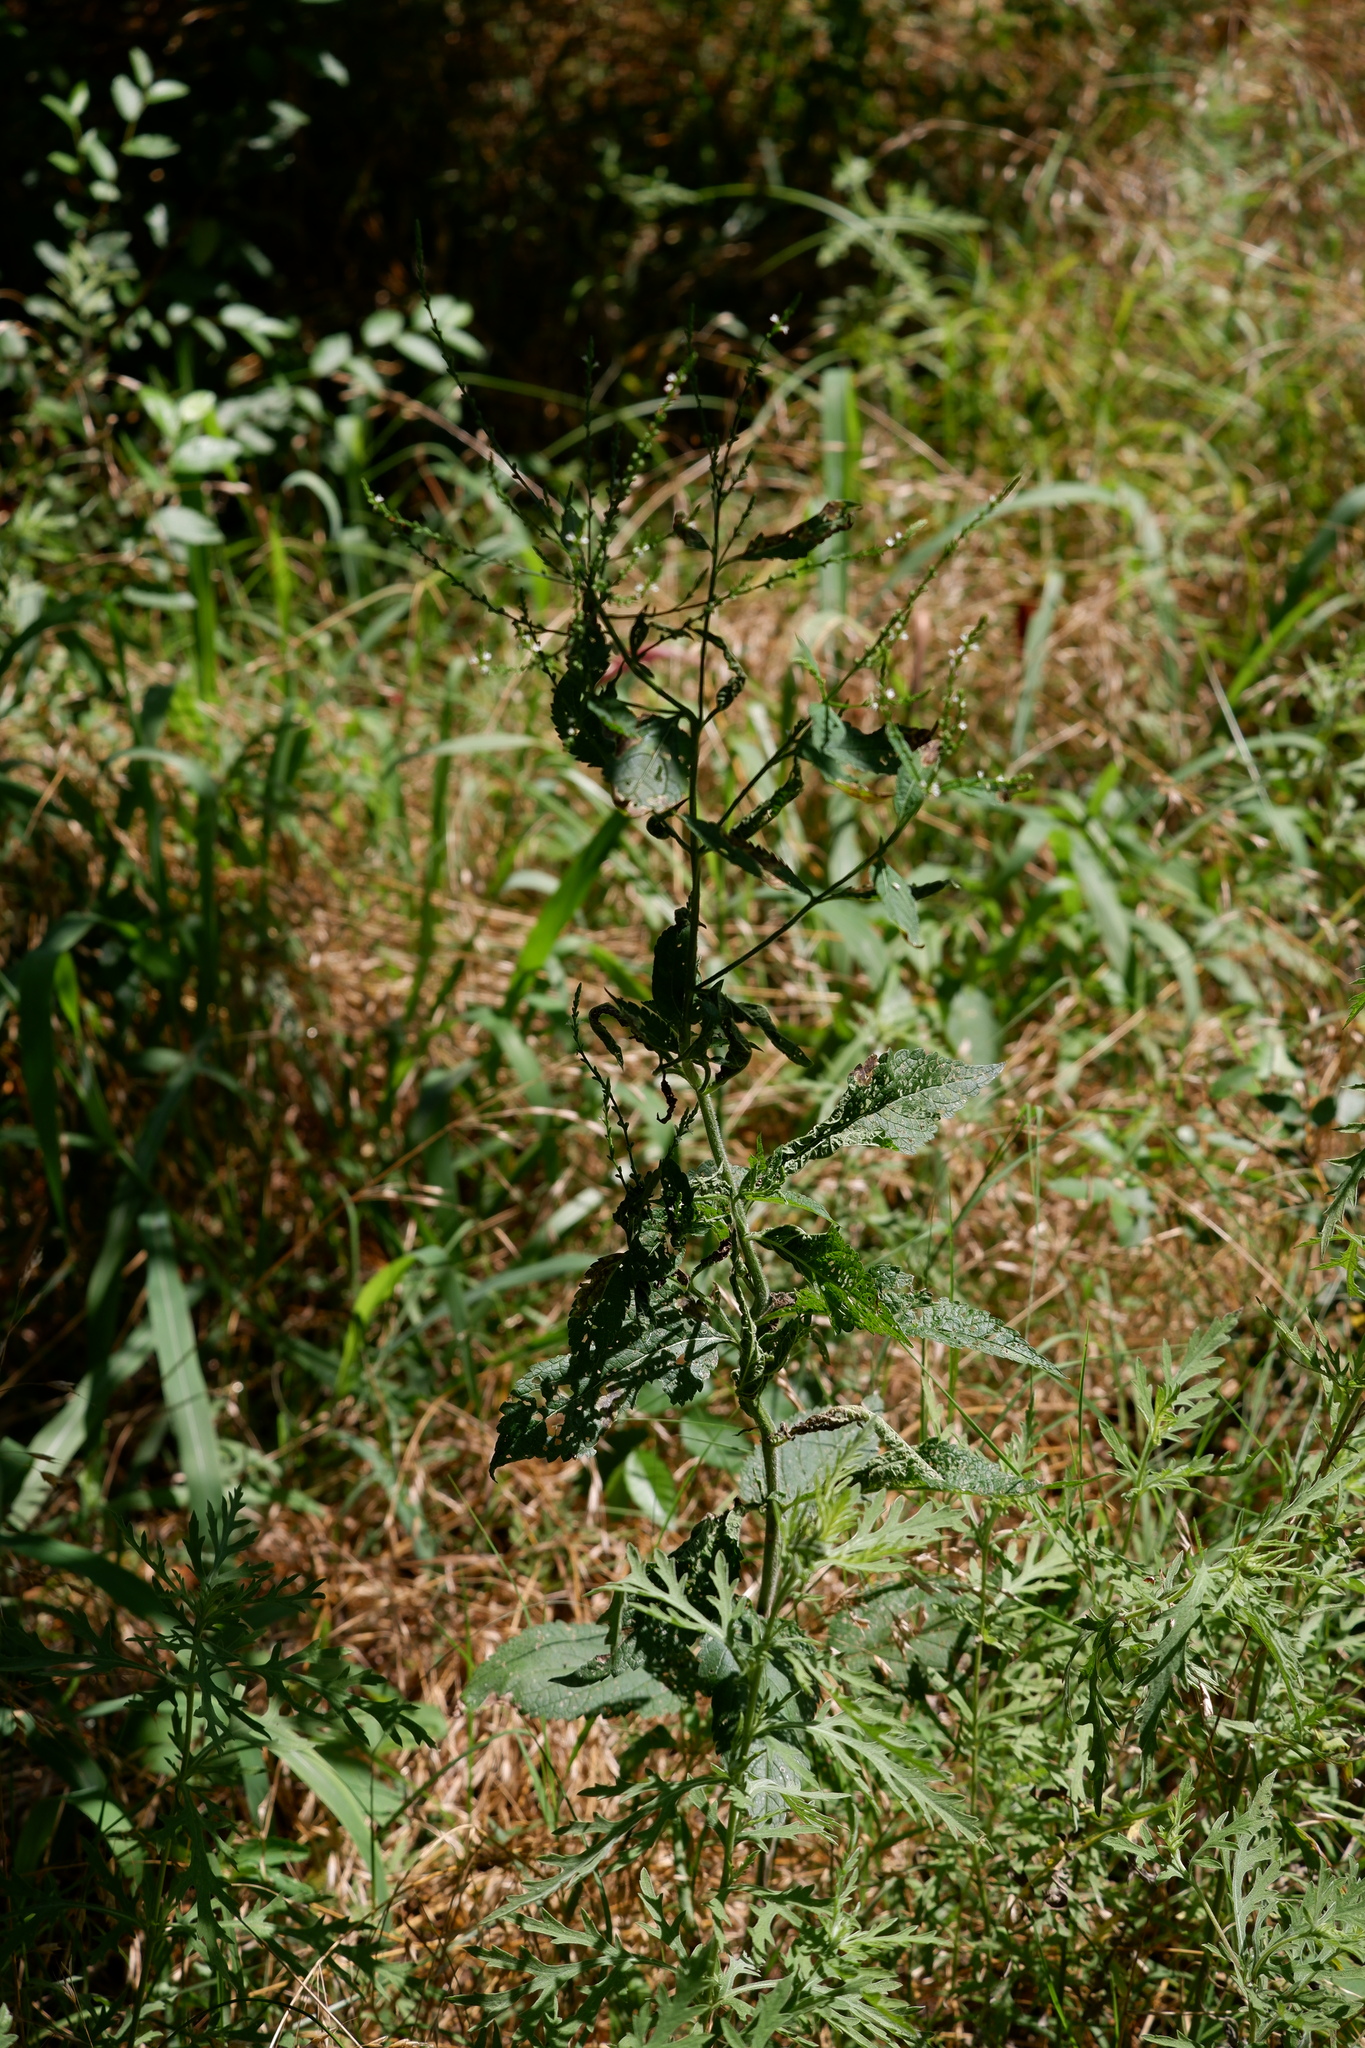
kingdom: Plantae
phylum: Tracheophyta
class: Magnoliopsida
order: Lamiales
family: Verbenaceae
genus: Verbena
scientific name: Verbena urticifolia
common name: Nettle-leaved vervain
